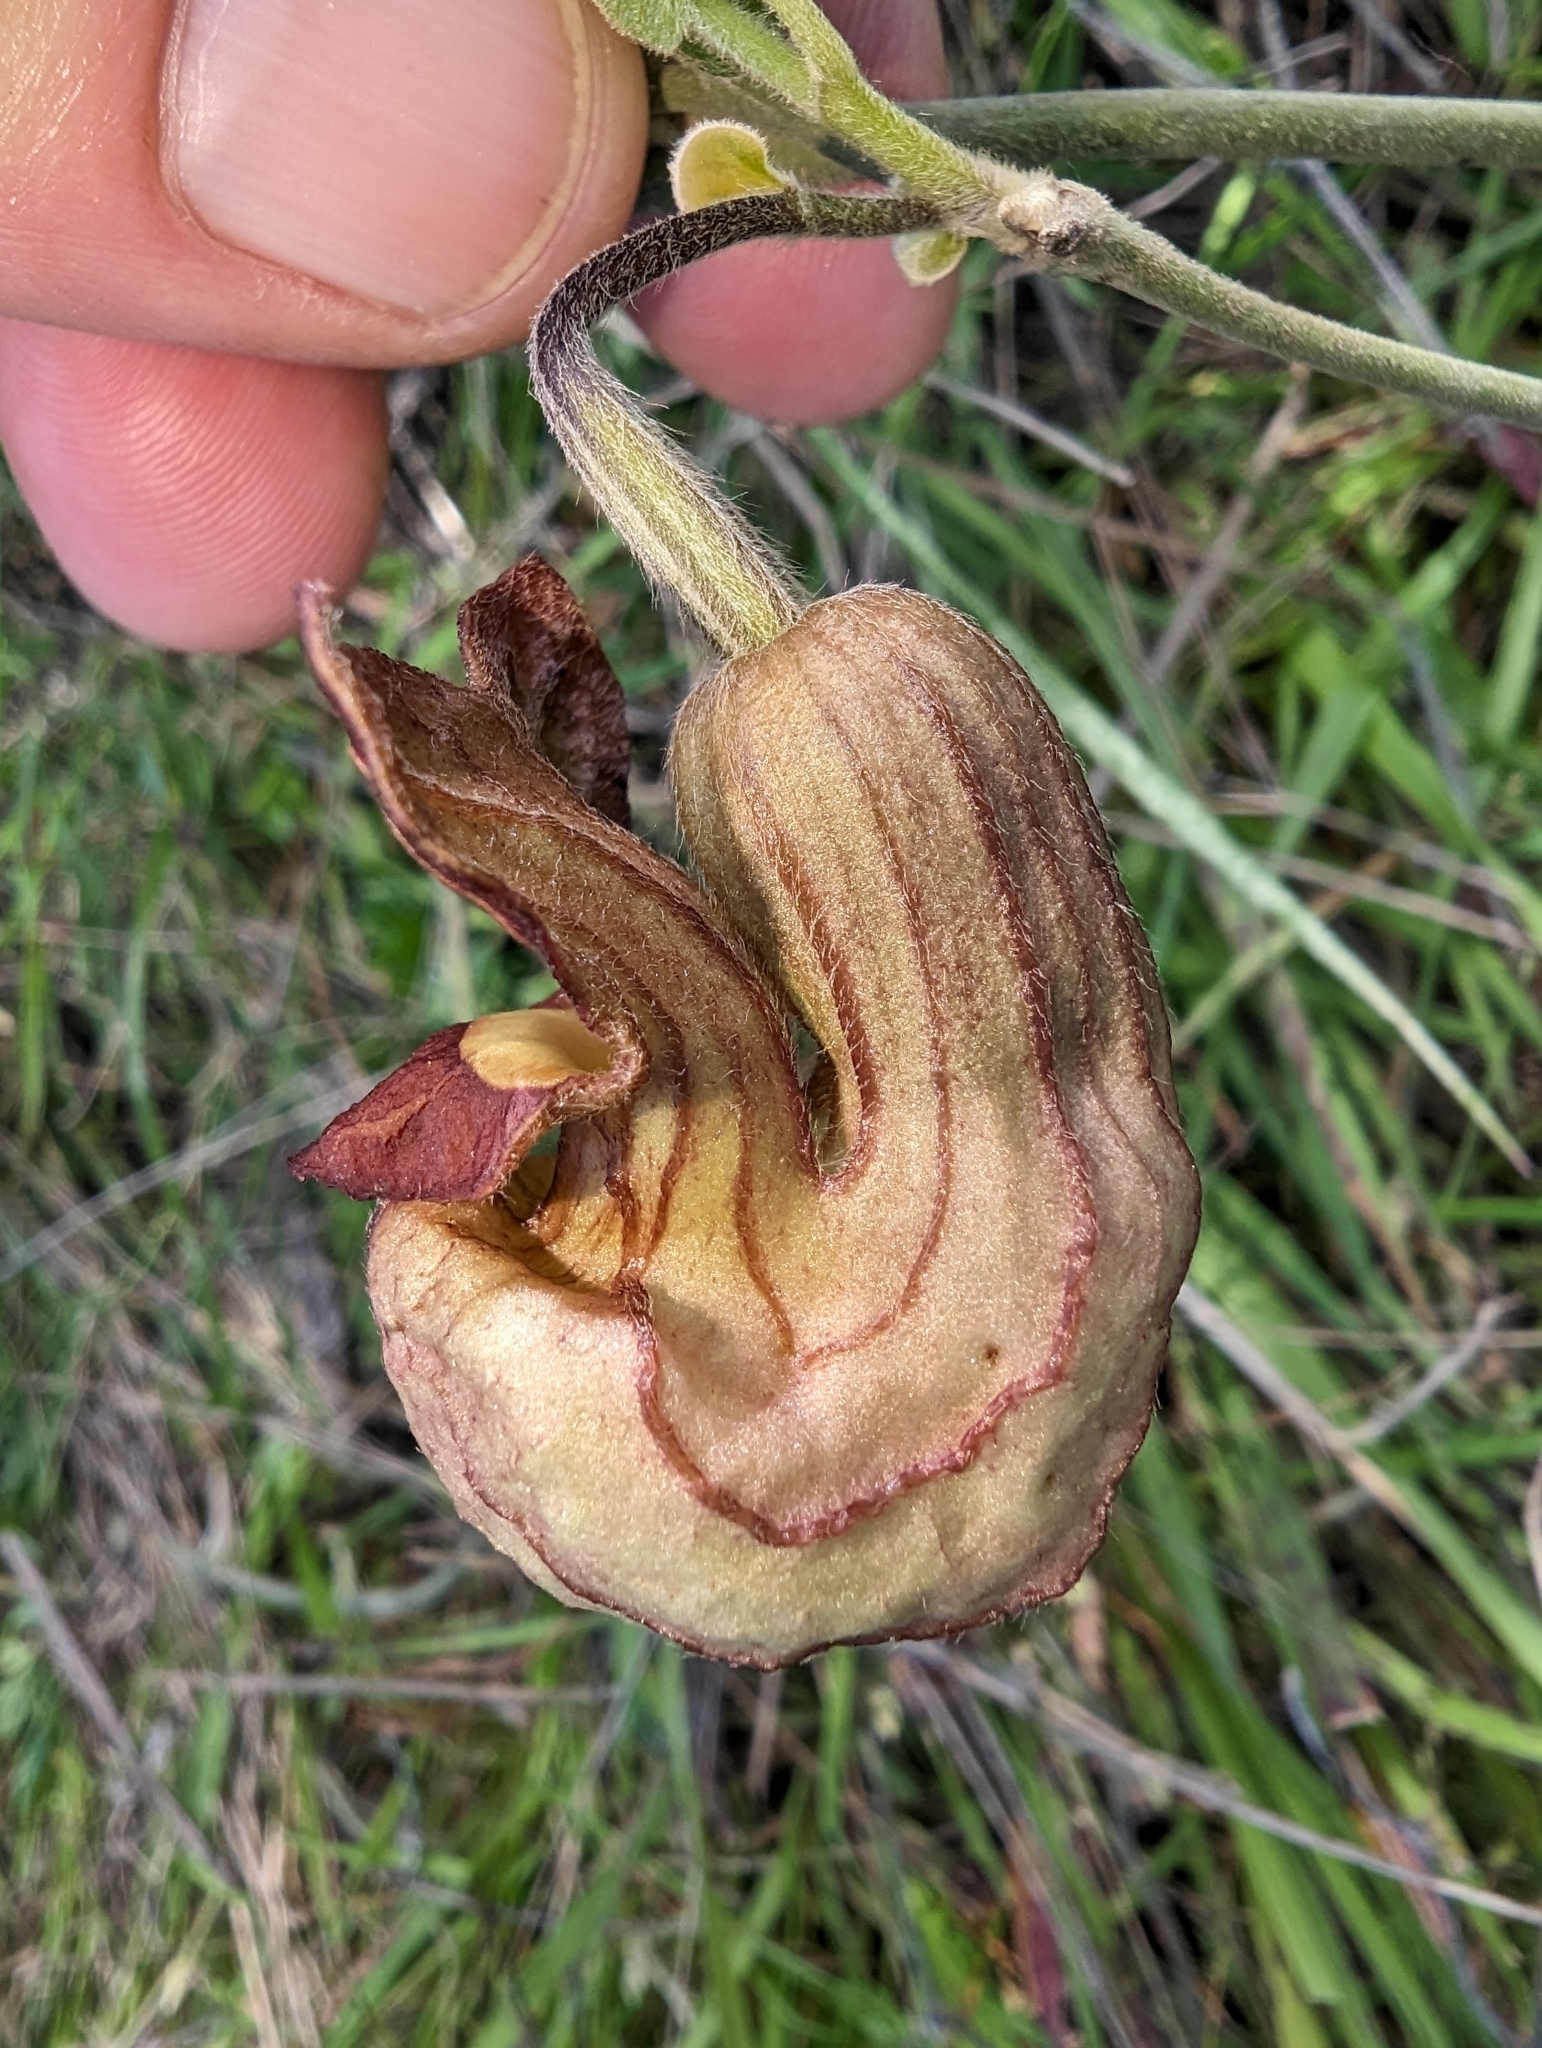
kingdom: Plantae
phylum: Tracheophyta
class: Magnoliopsida
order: Piperales
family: Aristolochiaceae
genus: Isotrema
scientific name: Isotrema californicum
